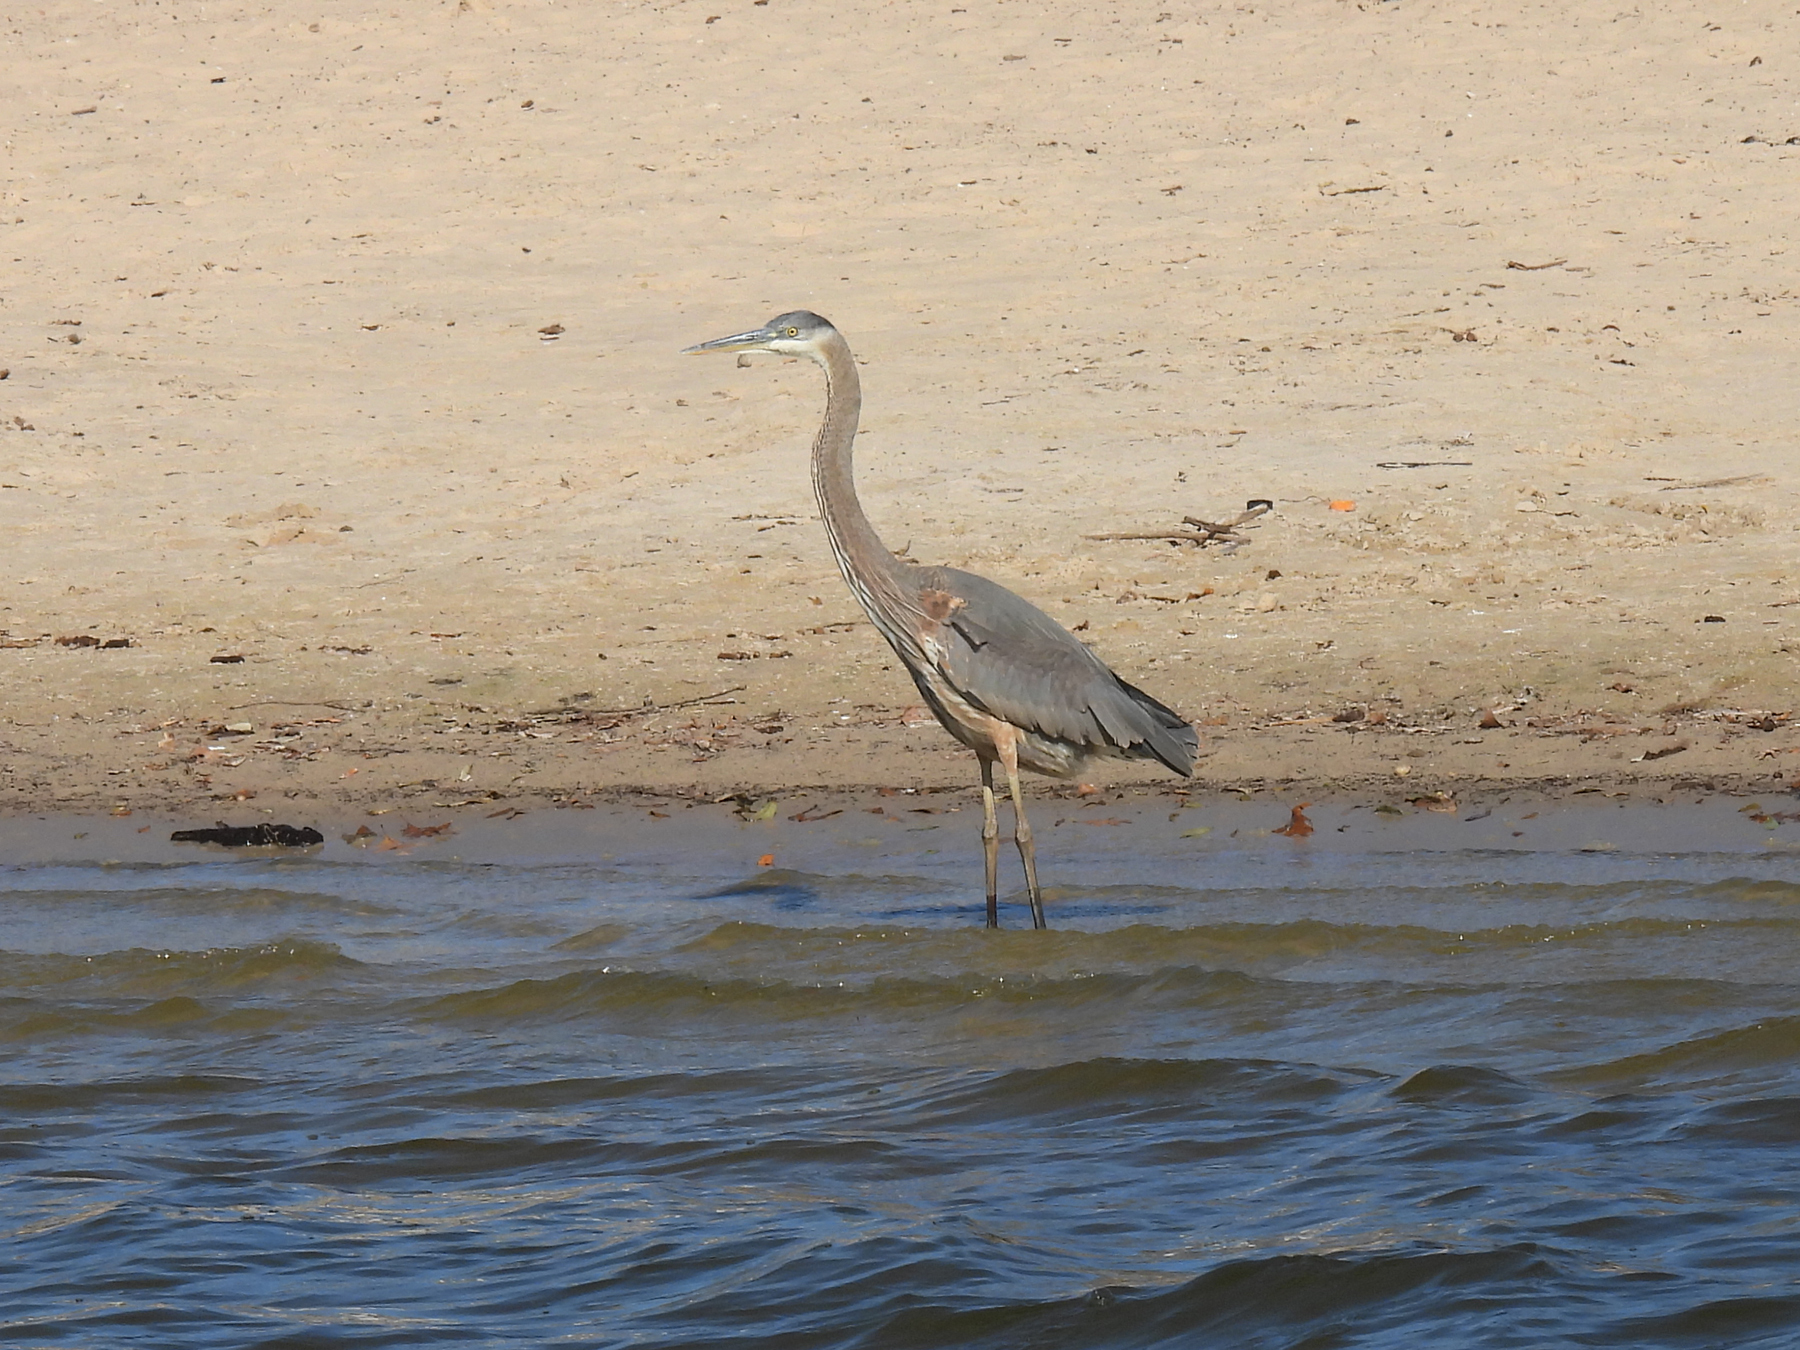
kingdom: Animalia
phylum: Chordata
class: Aves
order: Pelecaniformes
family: Ardeidae
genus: Ardea
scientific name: Ardea herodias
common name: Great blue heron
